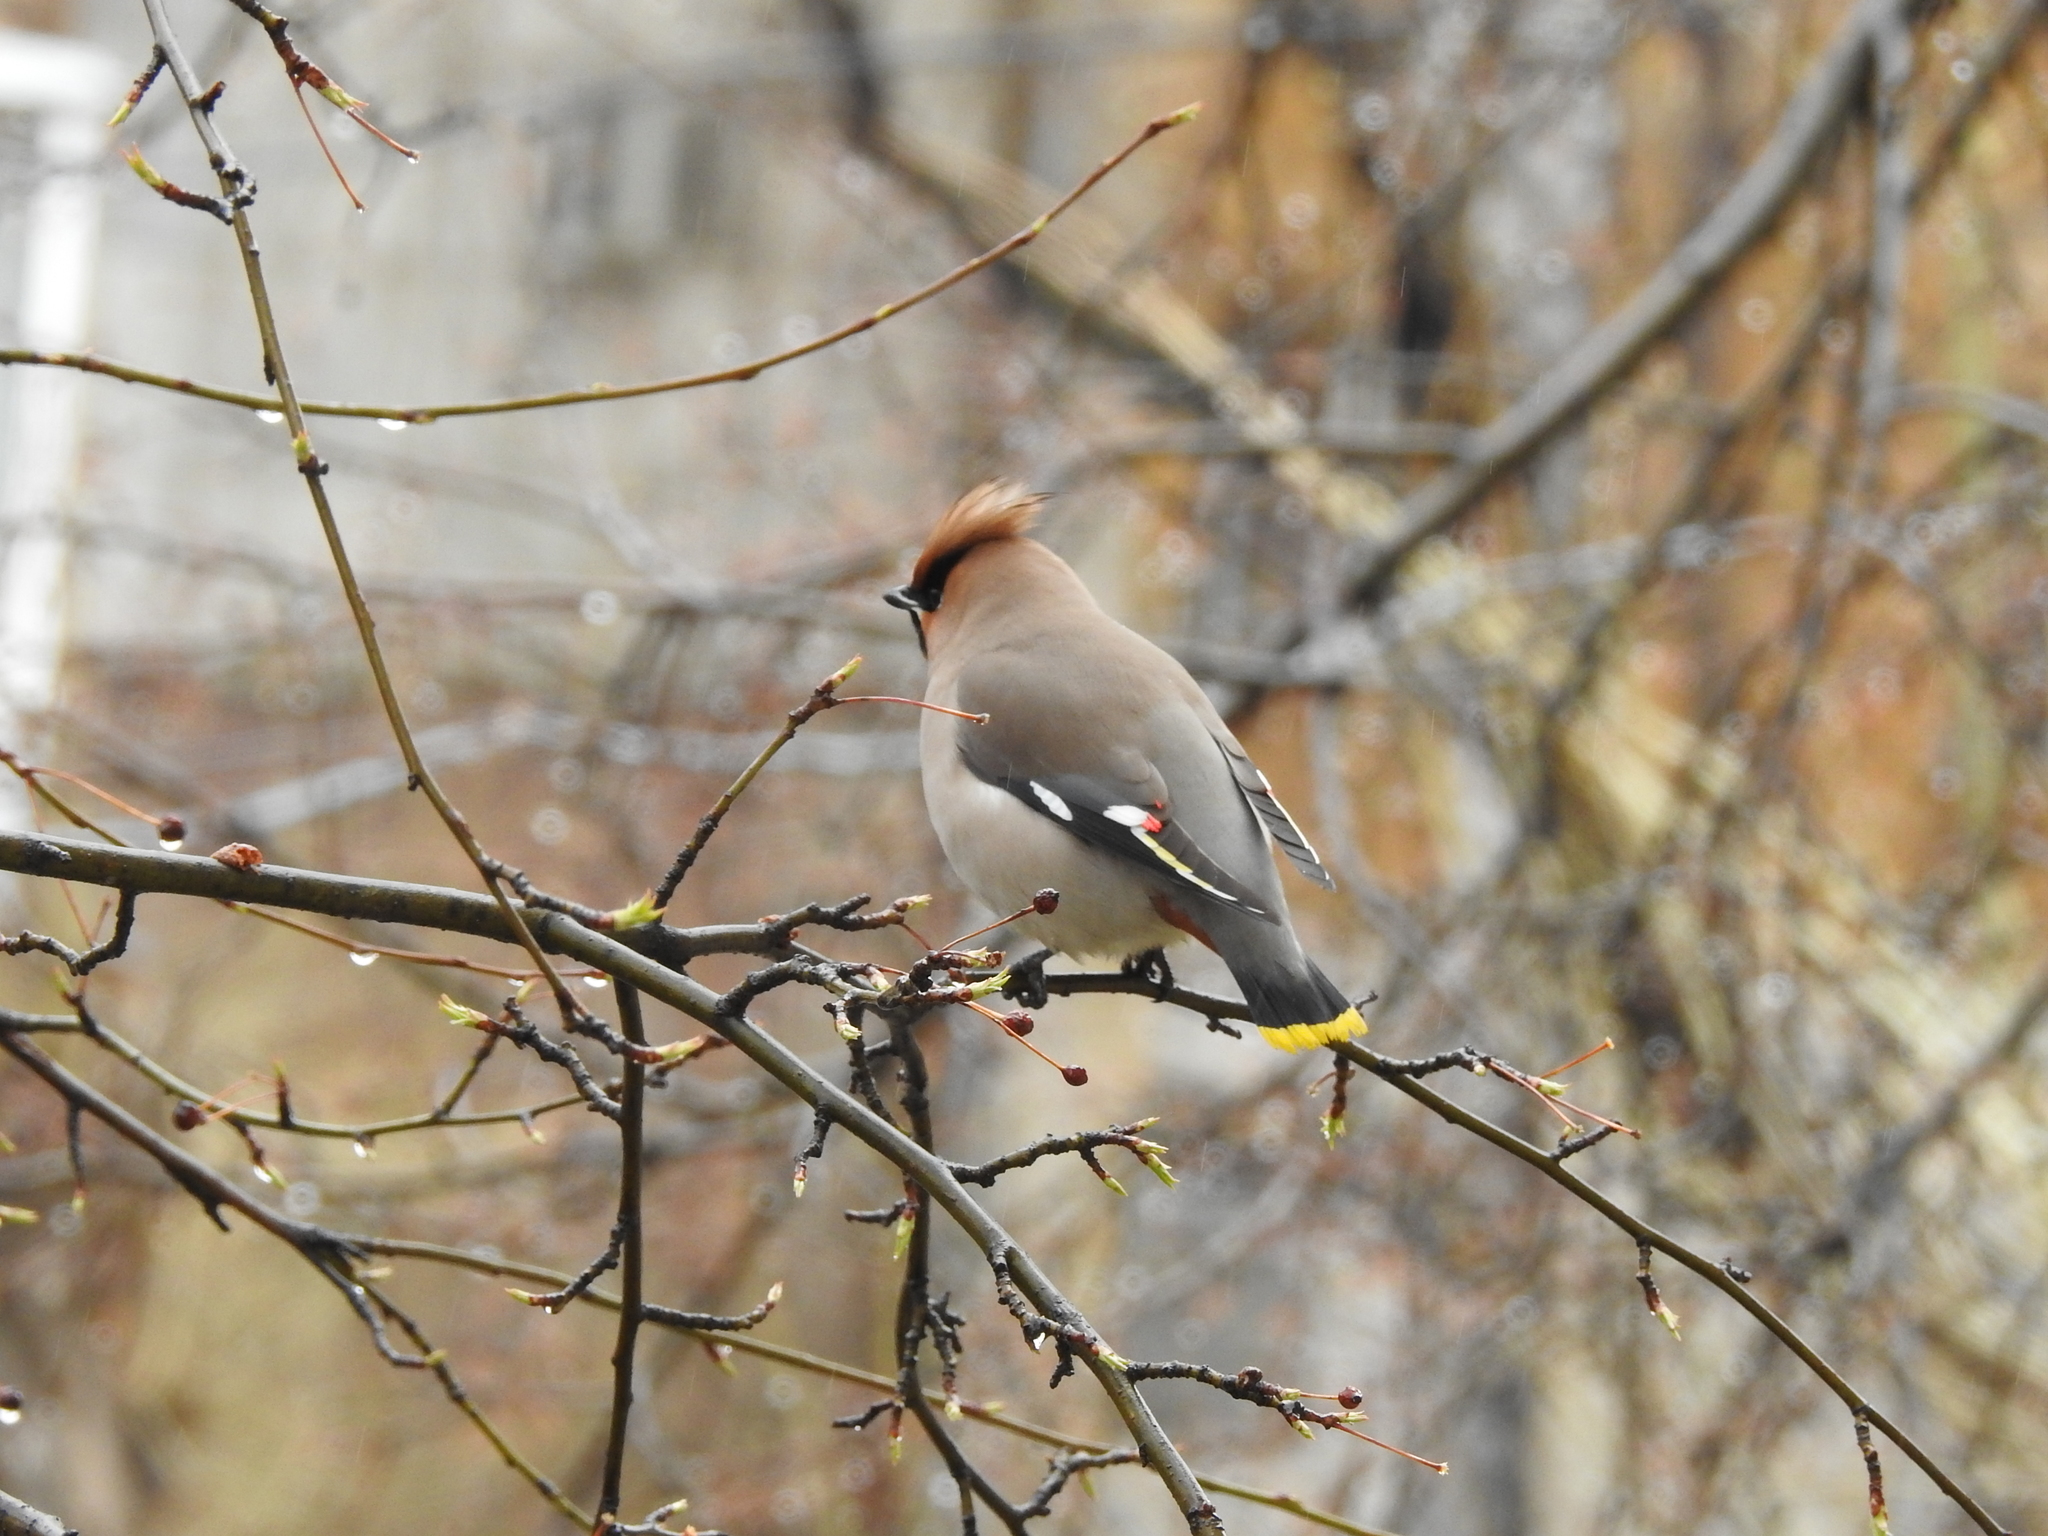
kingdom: Animalia
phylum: Chordata
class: Aves
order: Passeriformes
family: Bombycillidae
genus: Bombycilla
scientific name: Bombycilla garrulus
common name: Bohemian waxwing
